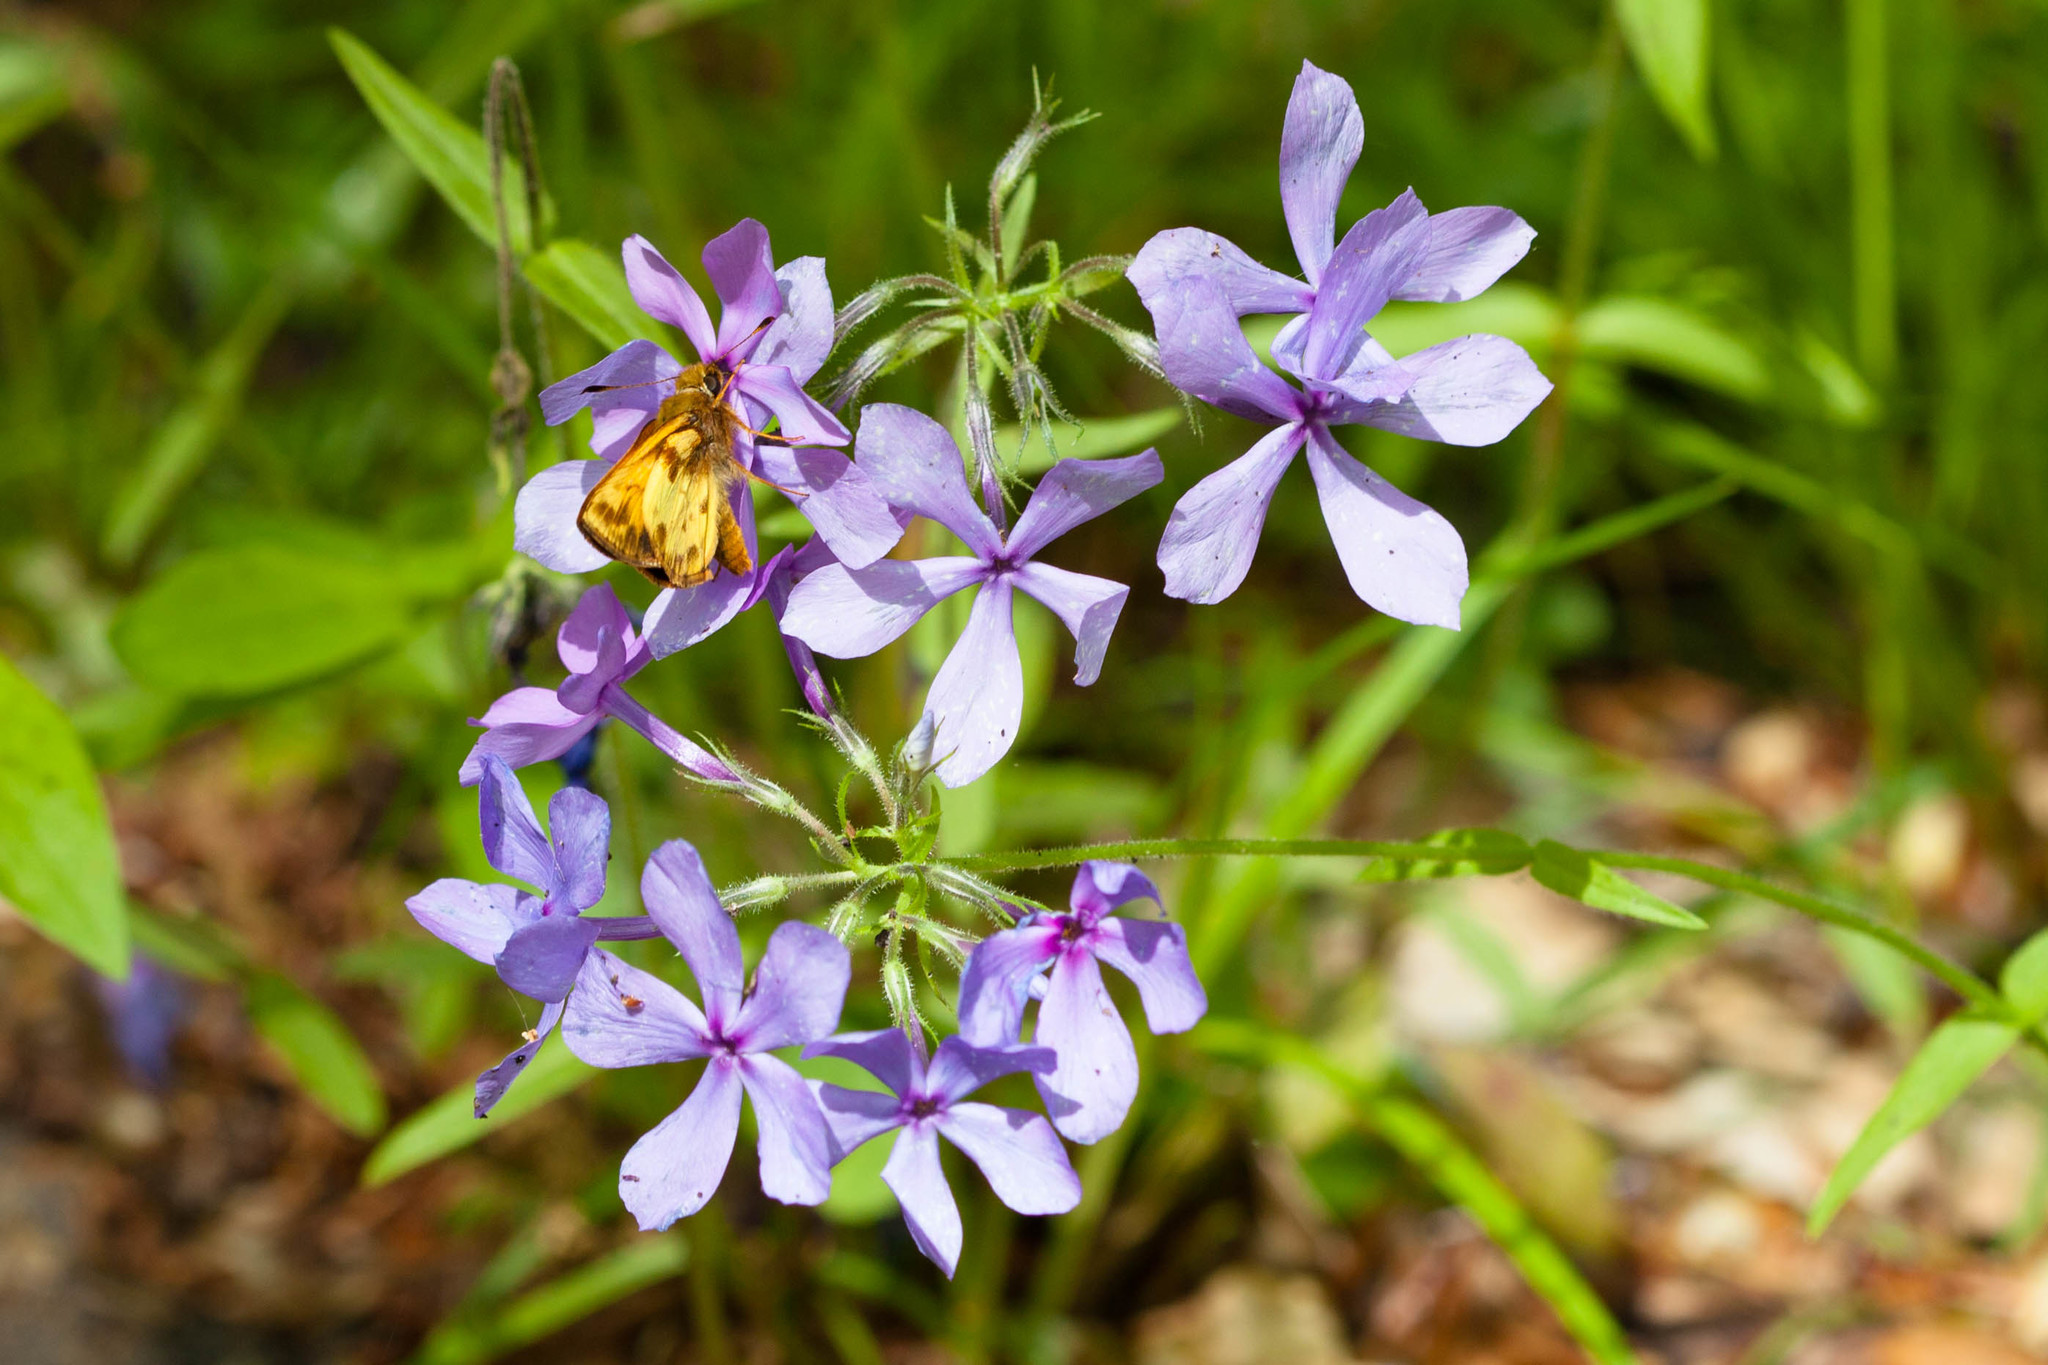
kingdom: Animalia
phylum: Arthropoda
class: Insecta
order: Lepidoptera
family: Hesperiidae
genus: Lon
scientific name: Lon zabulon
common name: Zabulon skipper
